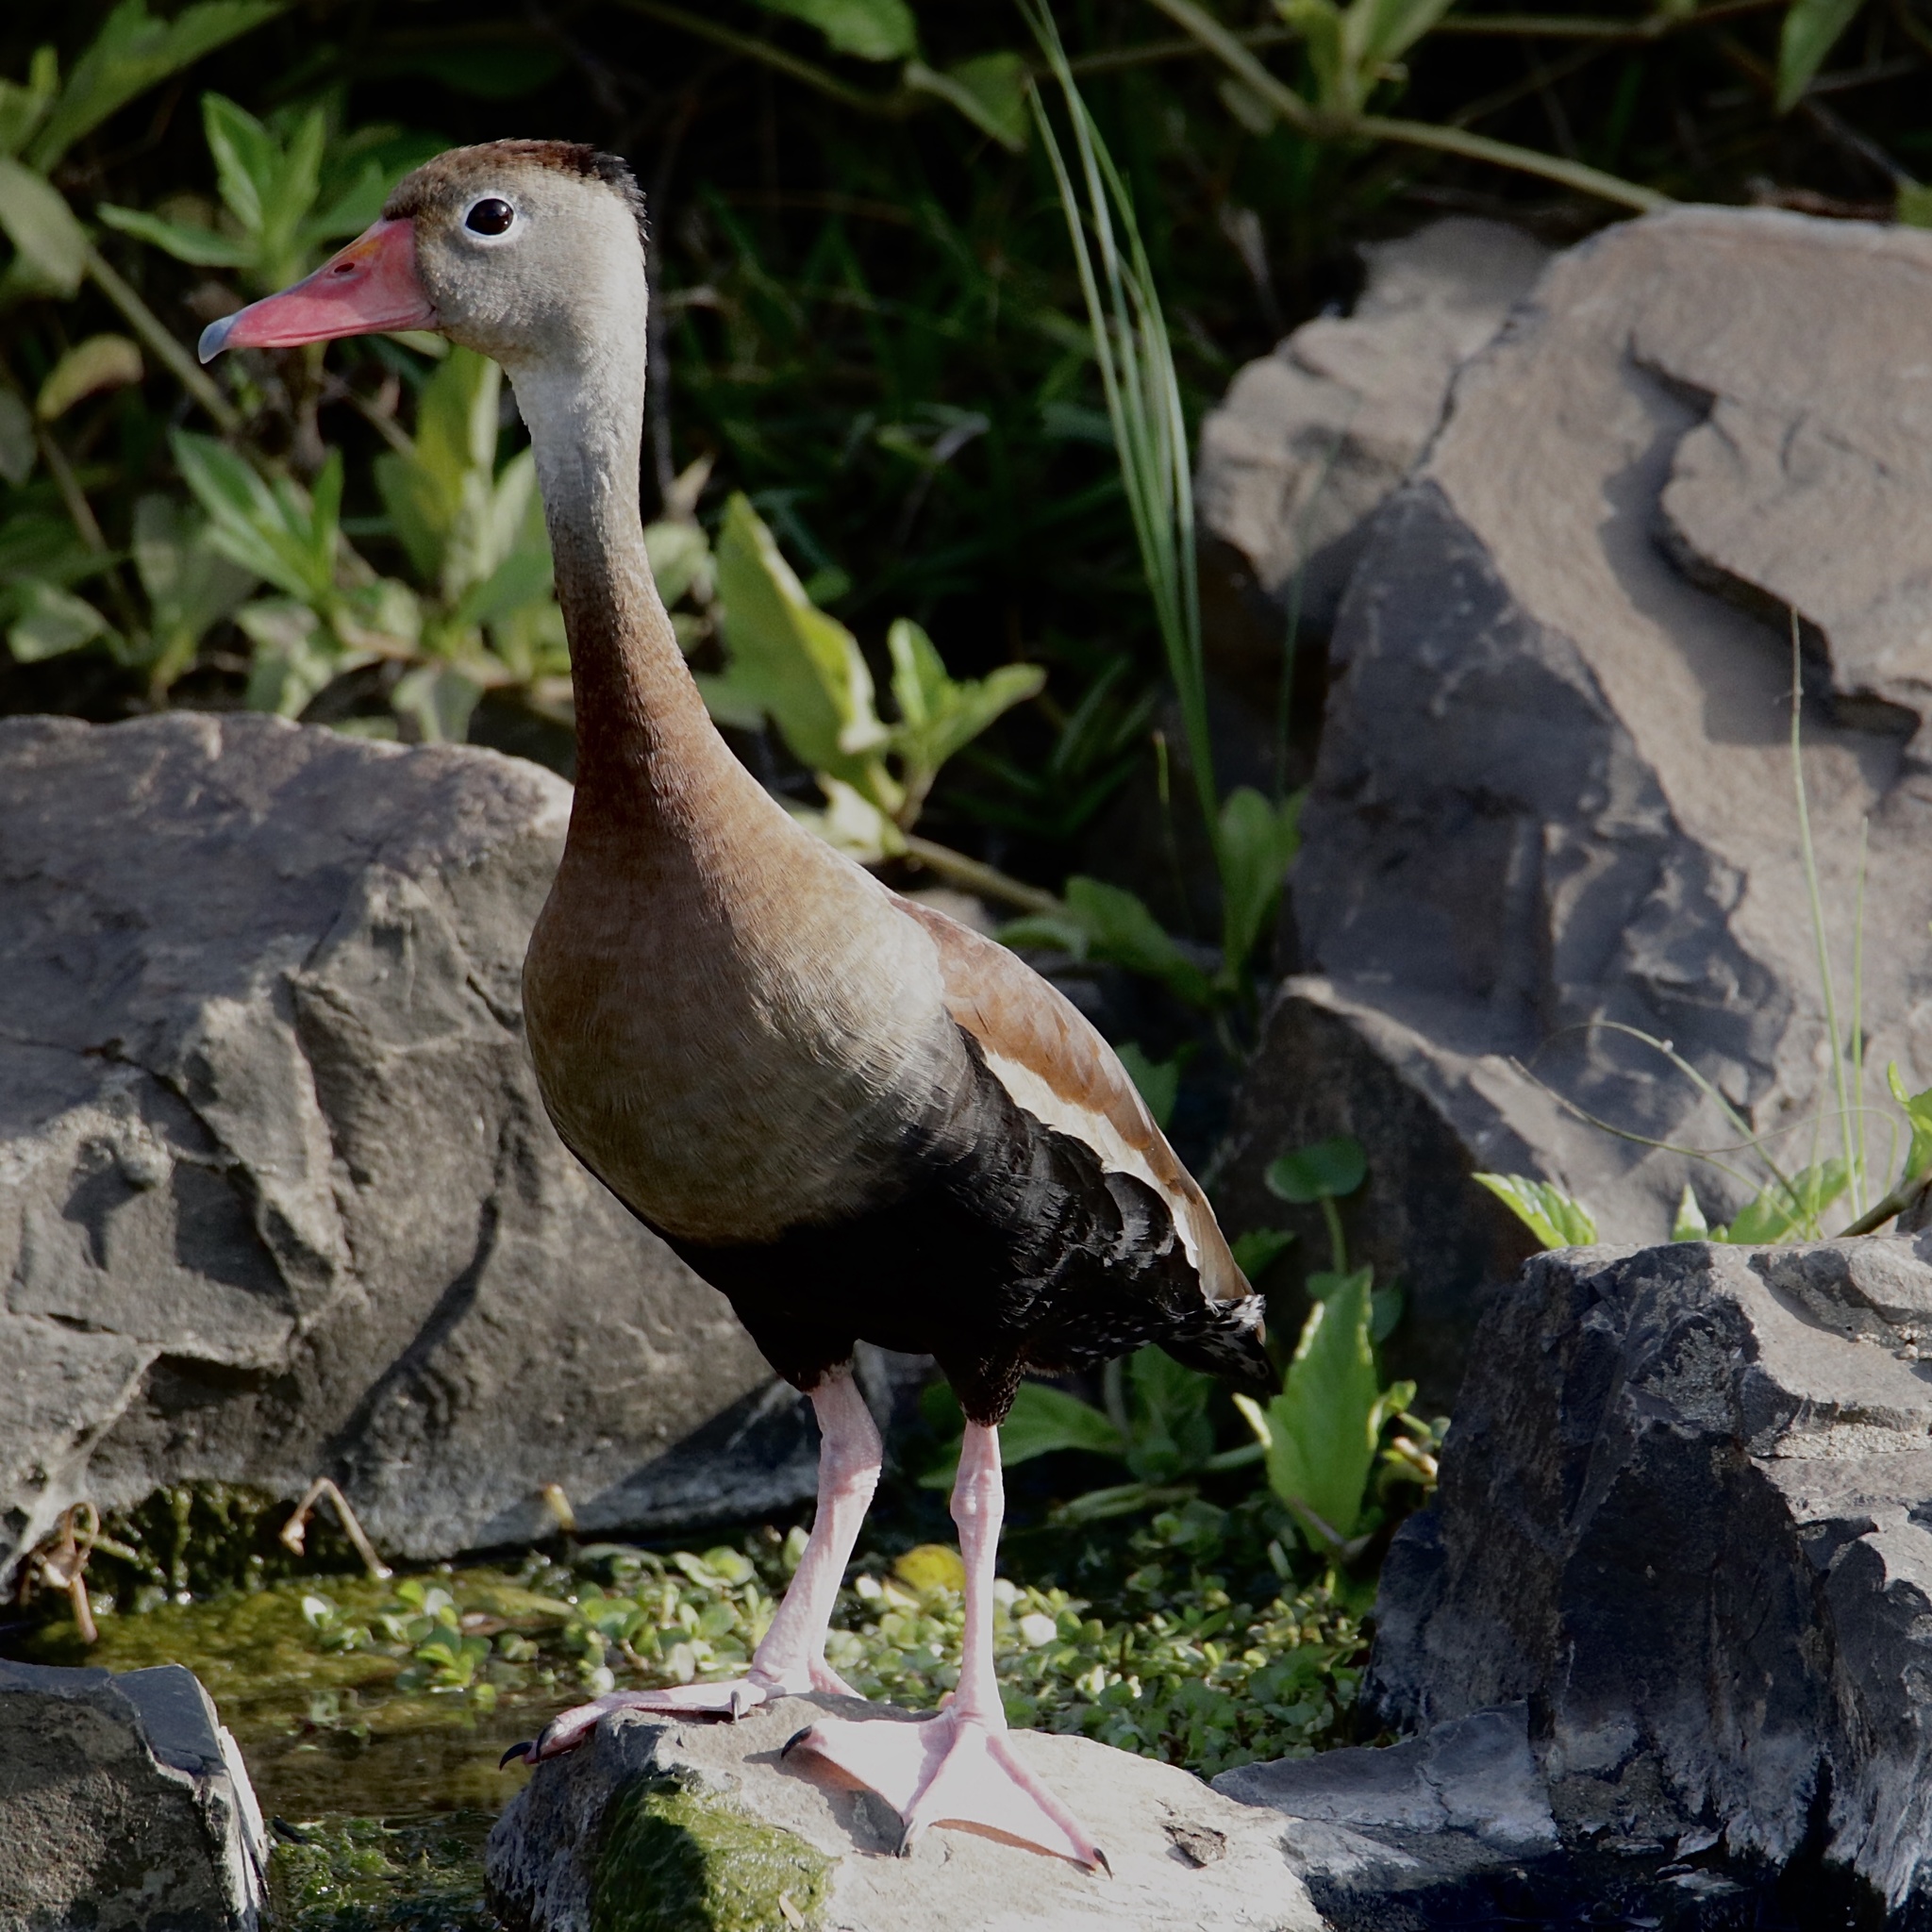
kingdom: Animalia
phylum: Chordata
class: Aves
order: Anseriformes
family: Anatidae
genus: Dendrocygna
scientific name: Dendrocygna autumnalis
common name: Black-bellied whistling duck
